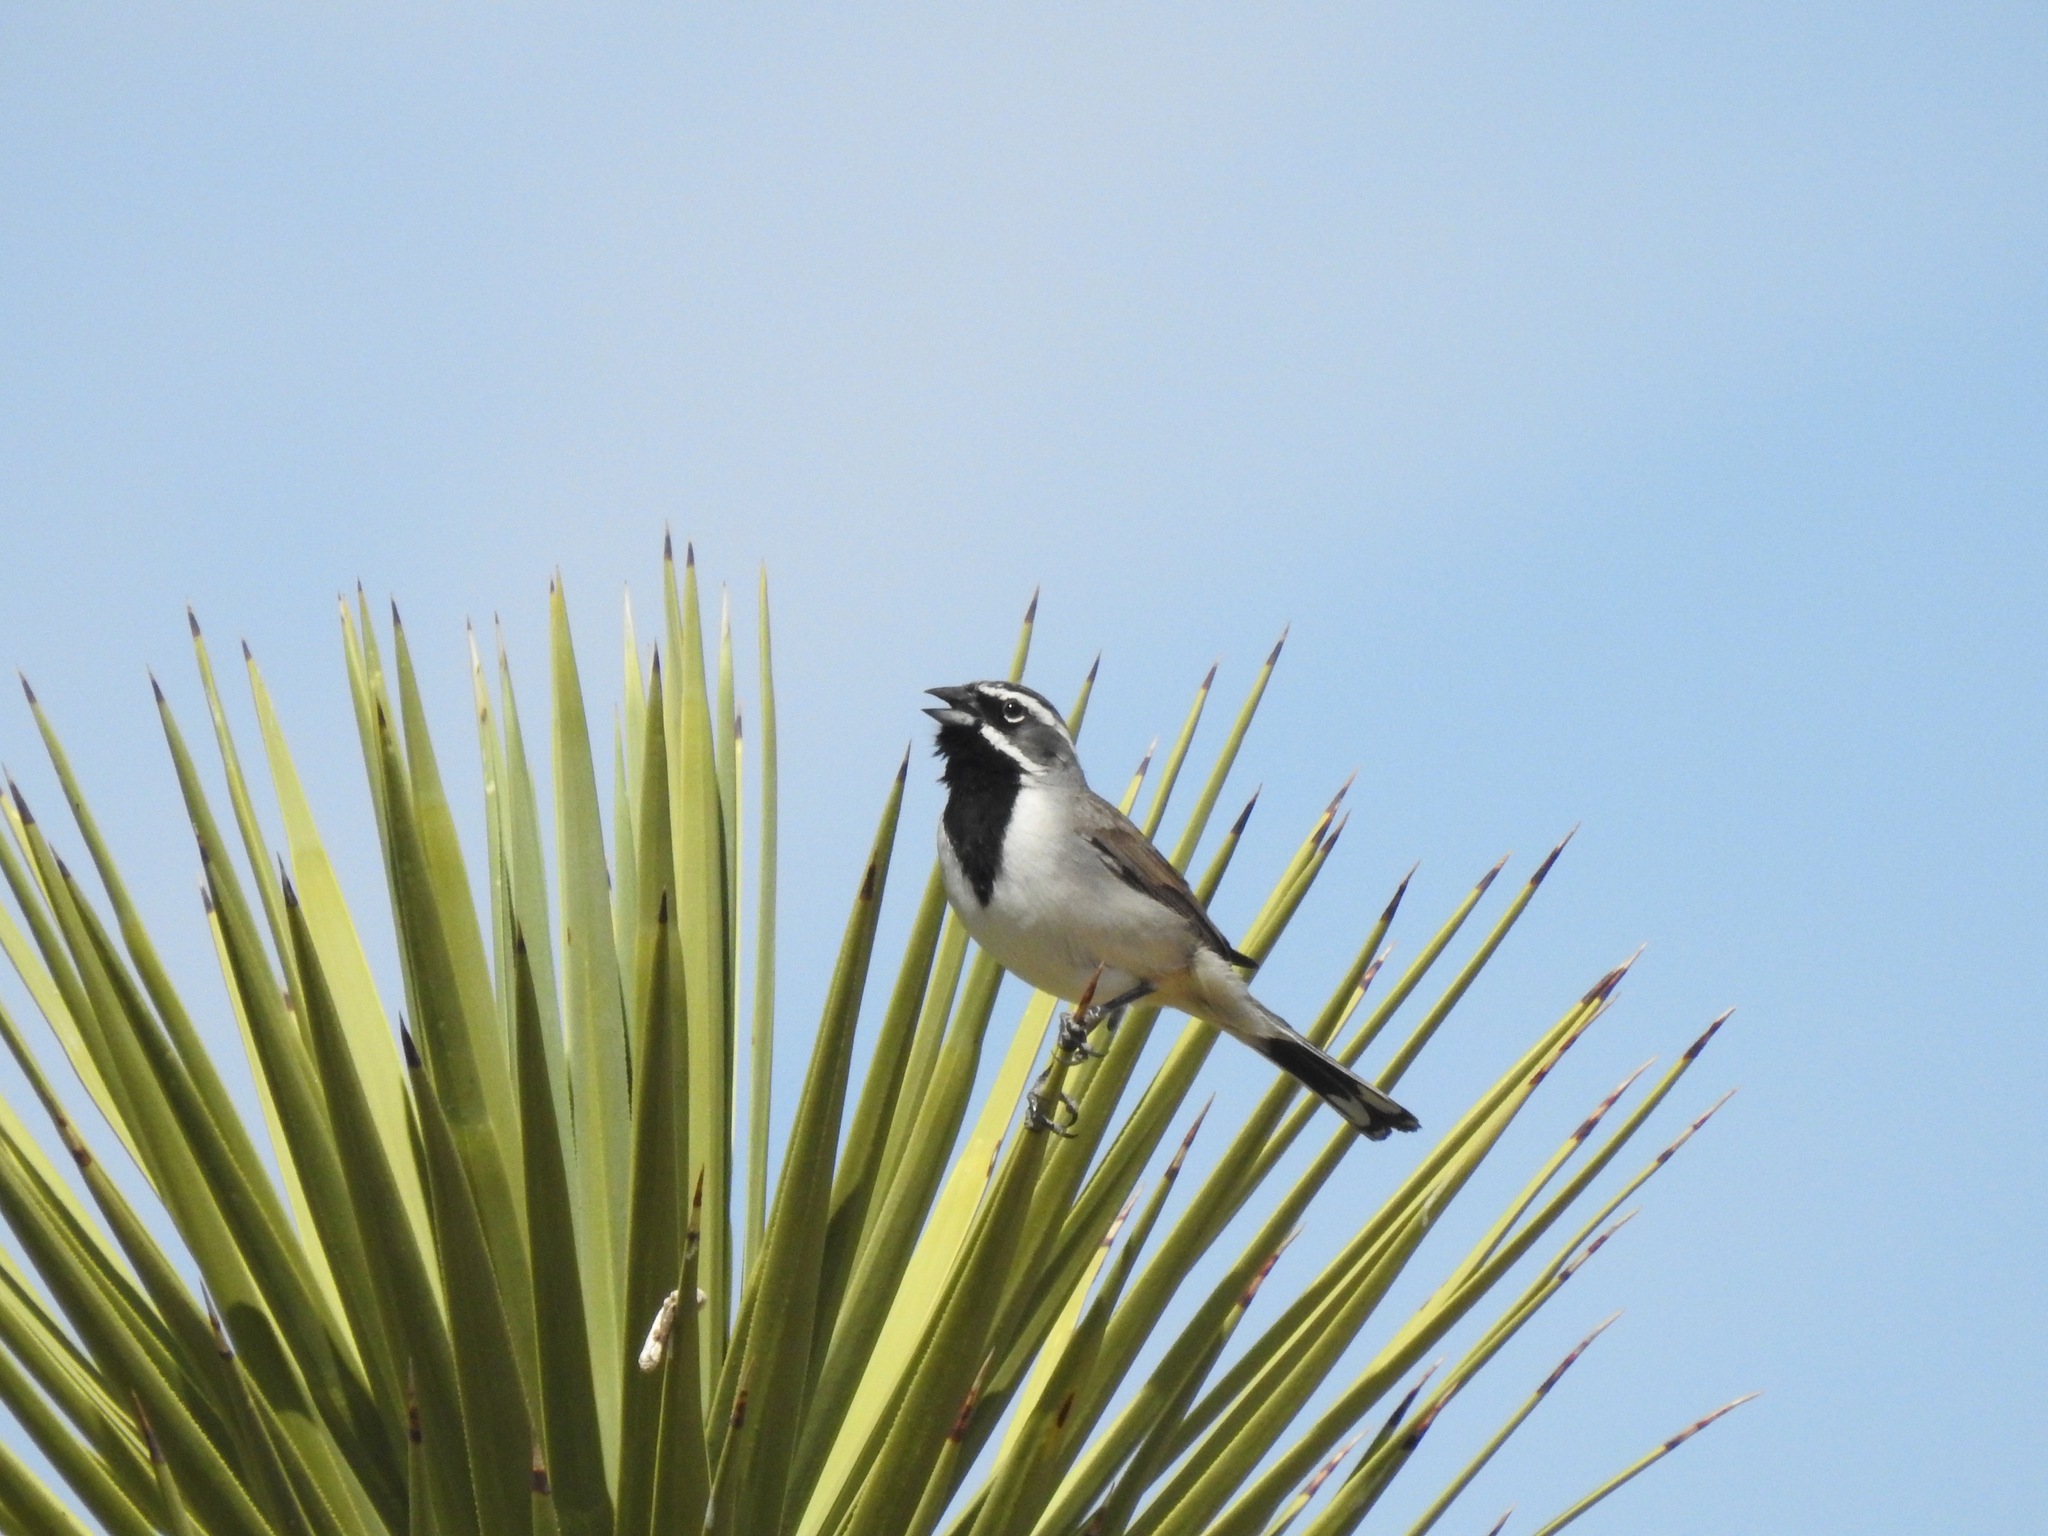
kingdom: Animalia
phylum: Chordata
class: Aves
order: Passeriformes
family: Passerellidae
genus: Amphispiza
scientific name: Amphispiza bilineata
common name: Black-throated sparrow
